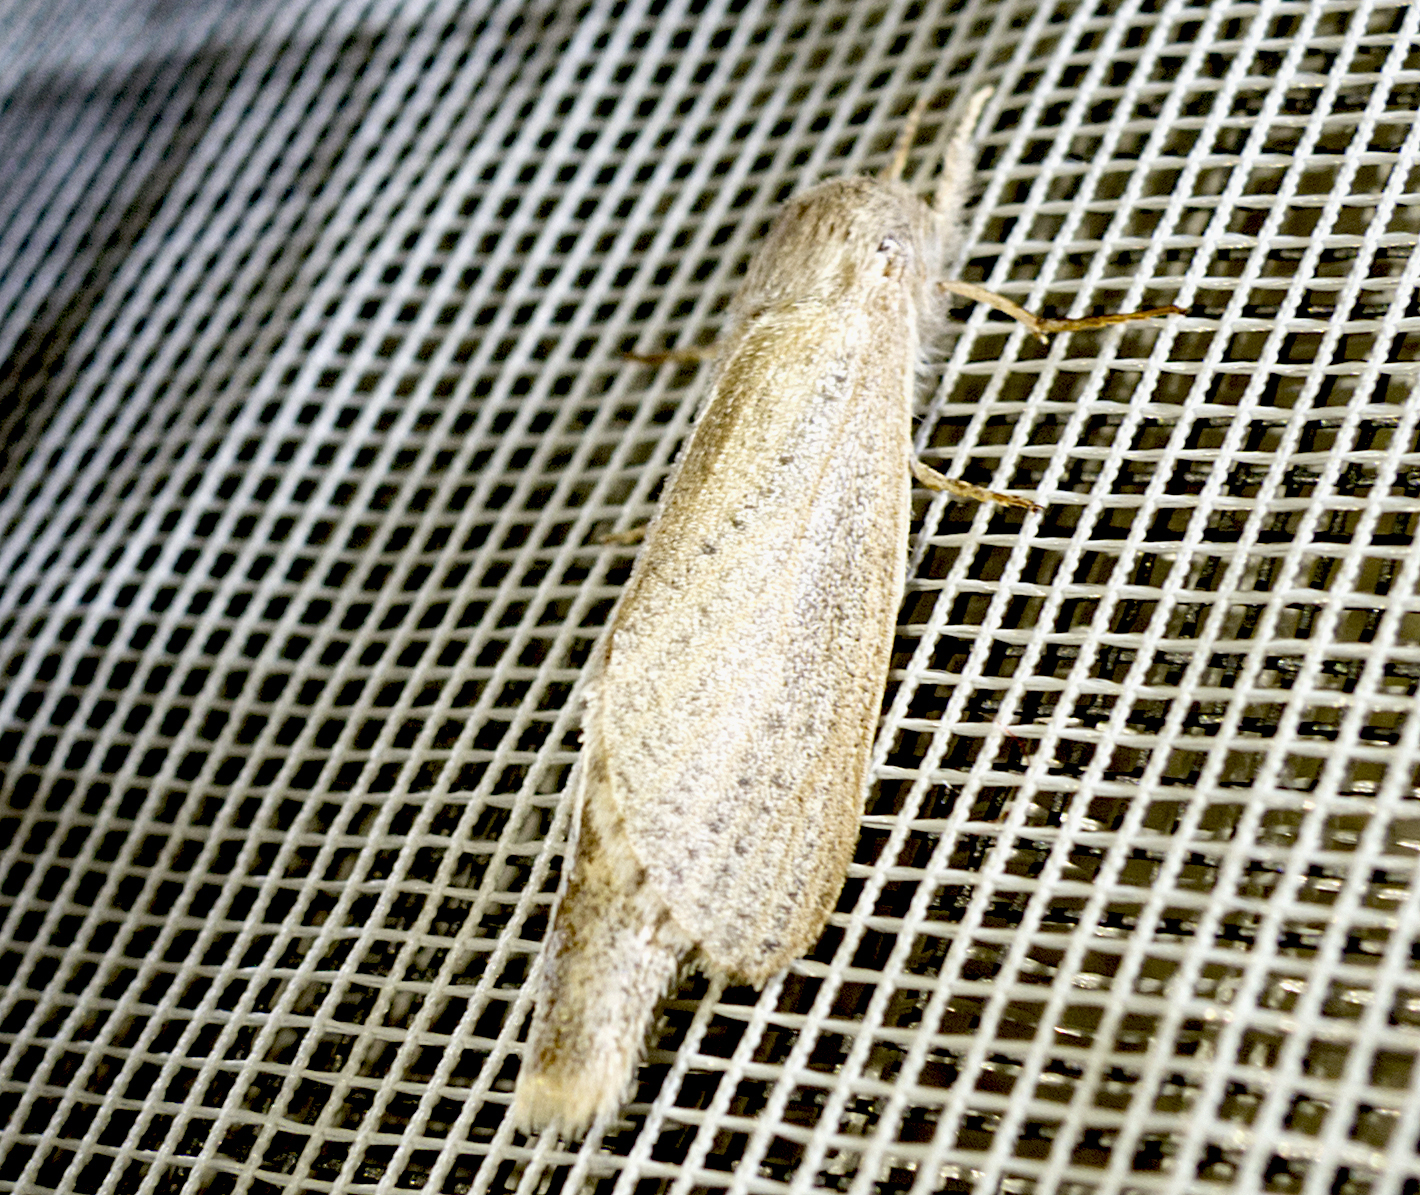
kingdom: Animalia
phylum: Arthropoda
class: Insecta
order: Lepidoptera
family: Cossidae
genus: Phragmataecia
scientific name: Phragmataecia castaneae
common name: Reed leopard
